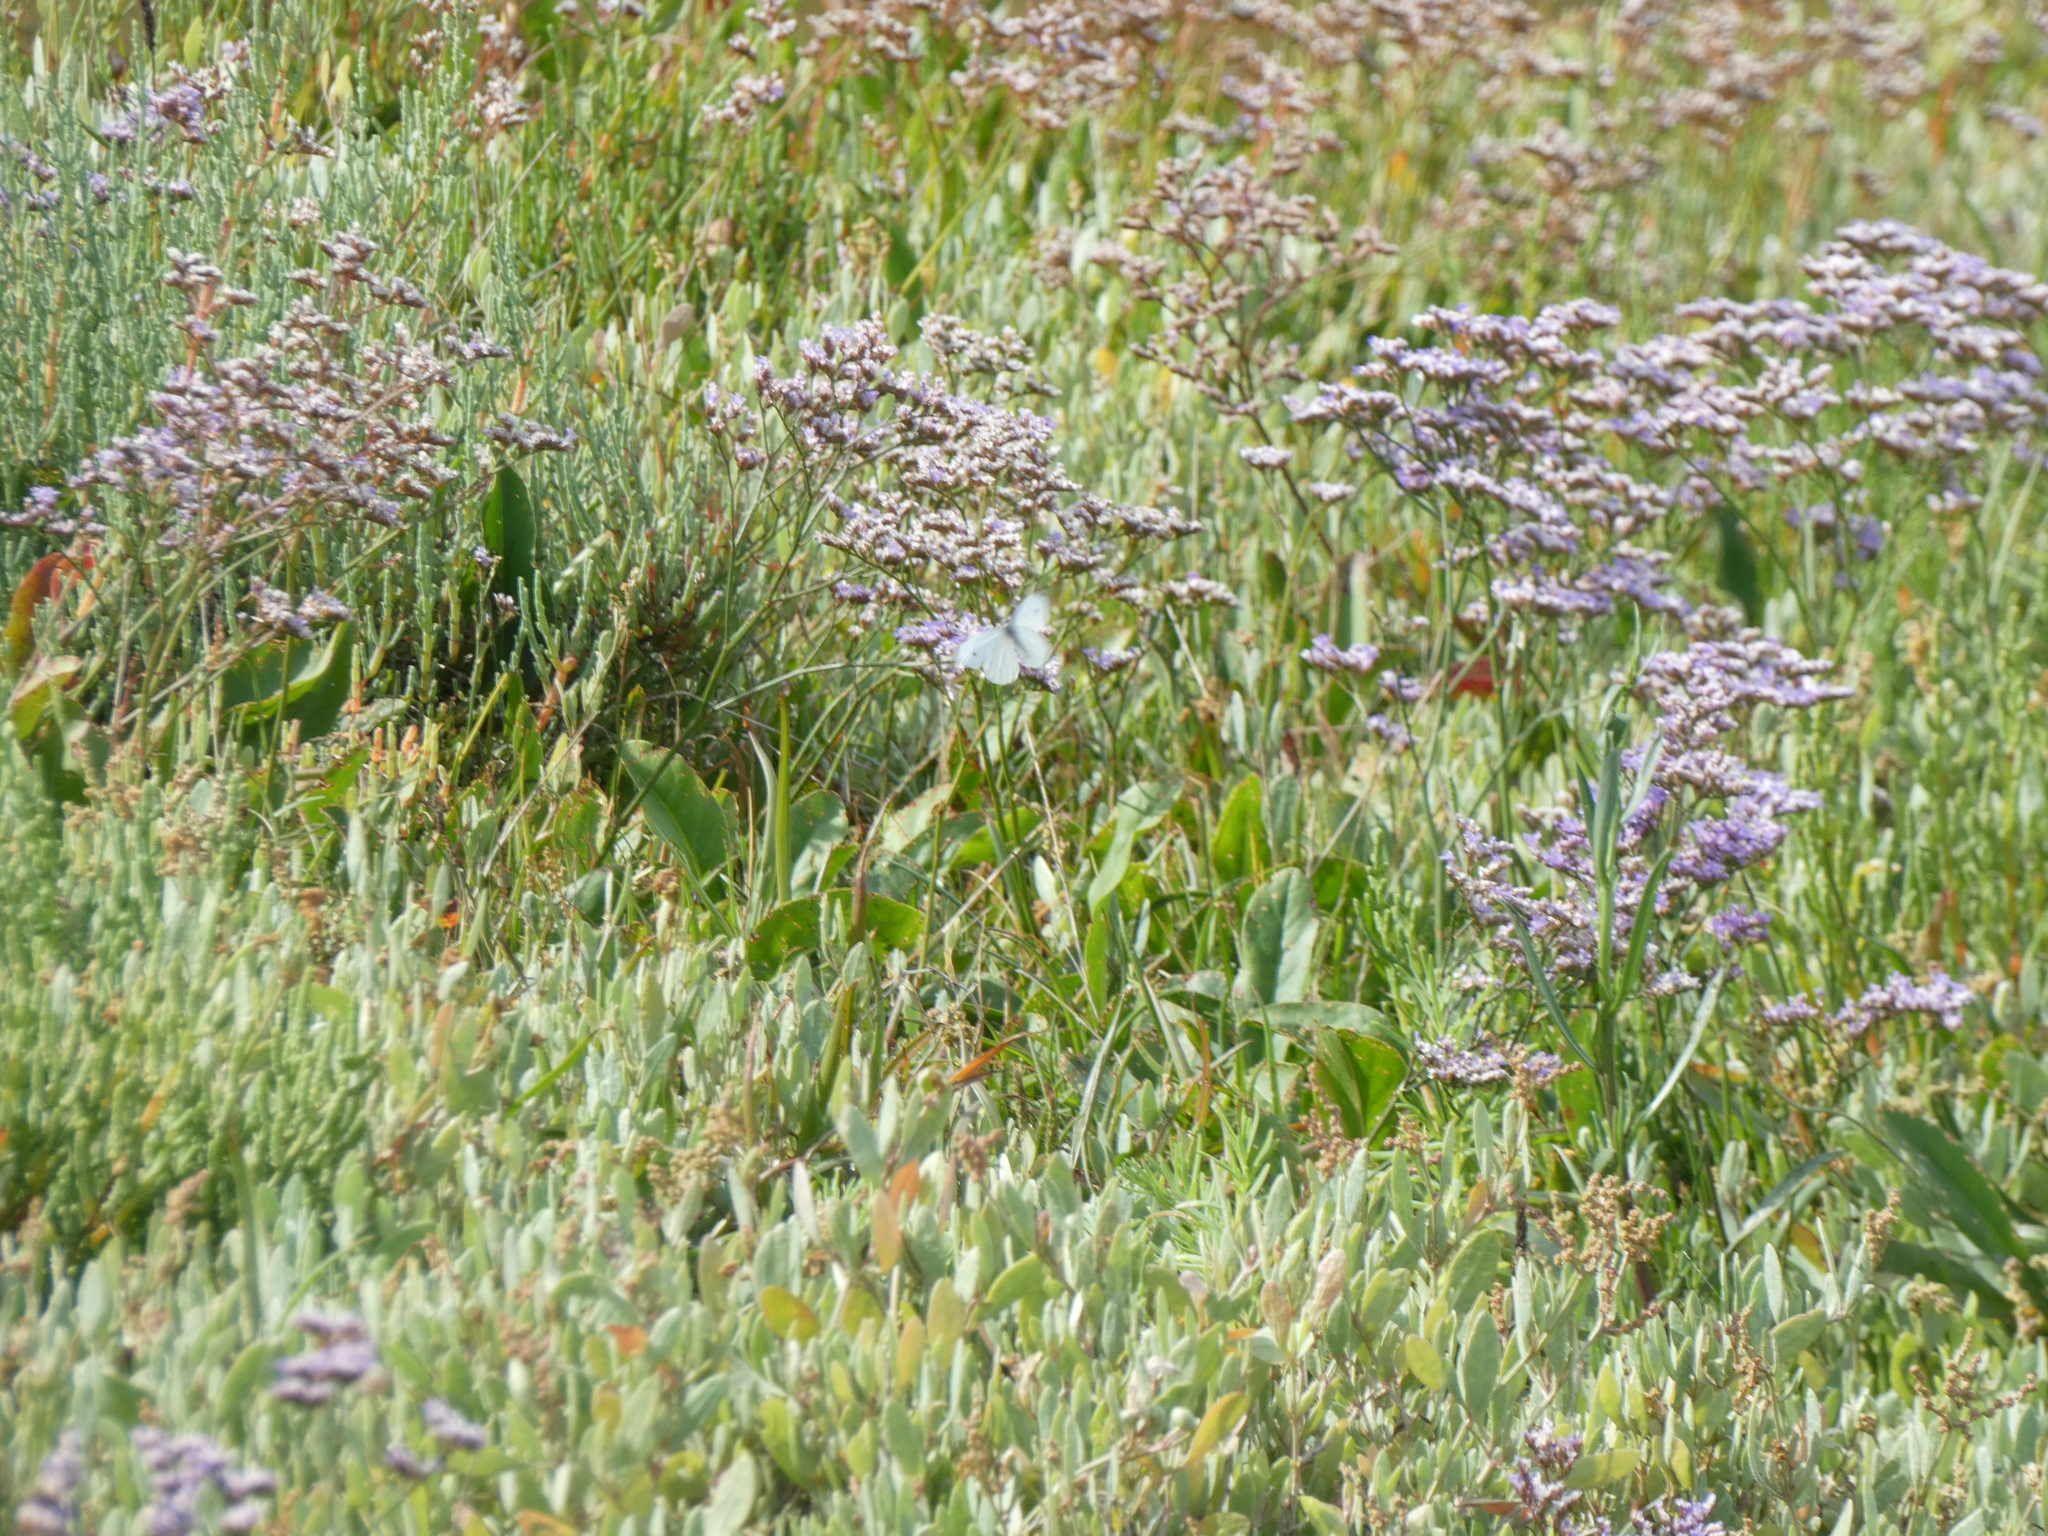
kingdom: Plantae
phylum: Tracheophyta
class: Magnoliopsida
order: Caryophyllales
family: Plumbaginaceae
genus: Limonium
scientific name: Limonium vulgare
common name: Common sea-lavender
